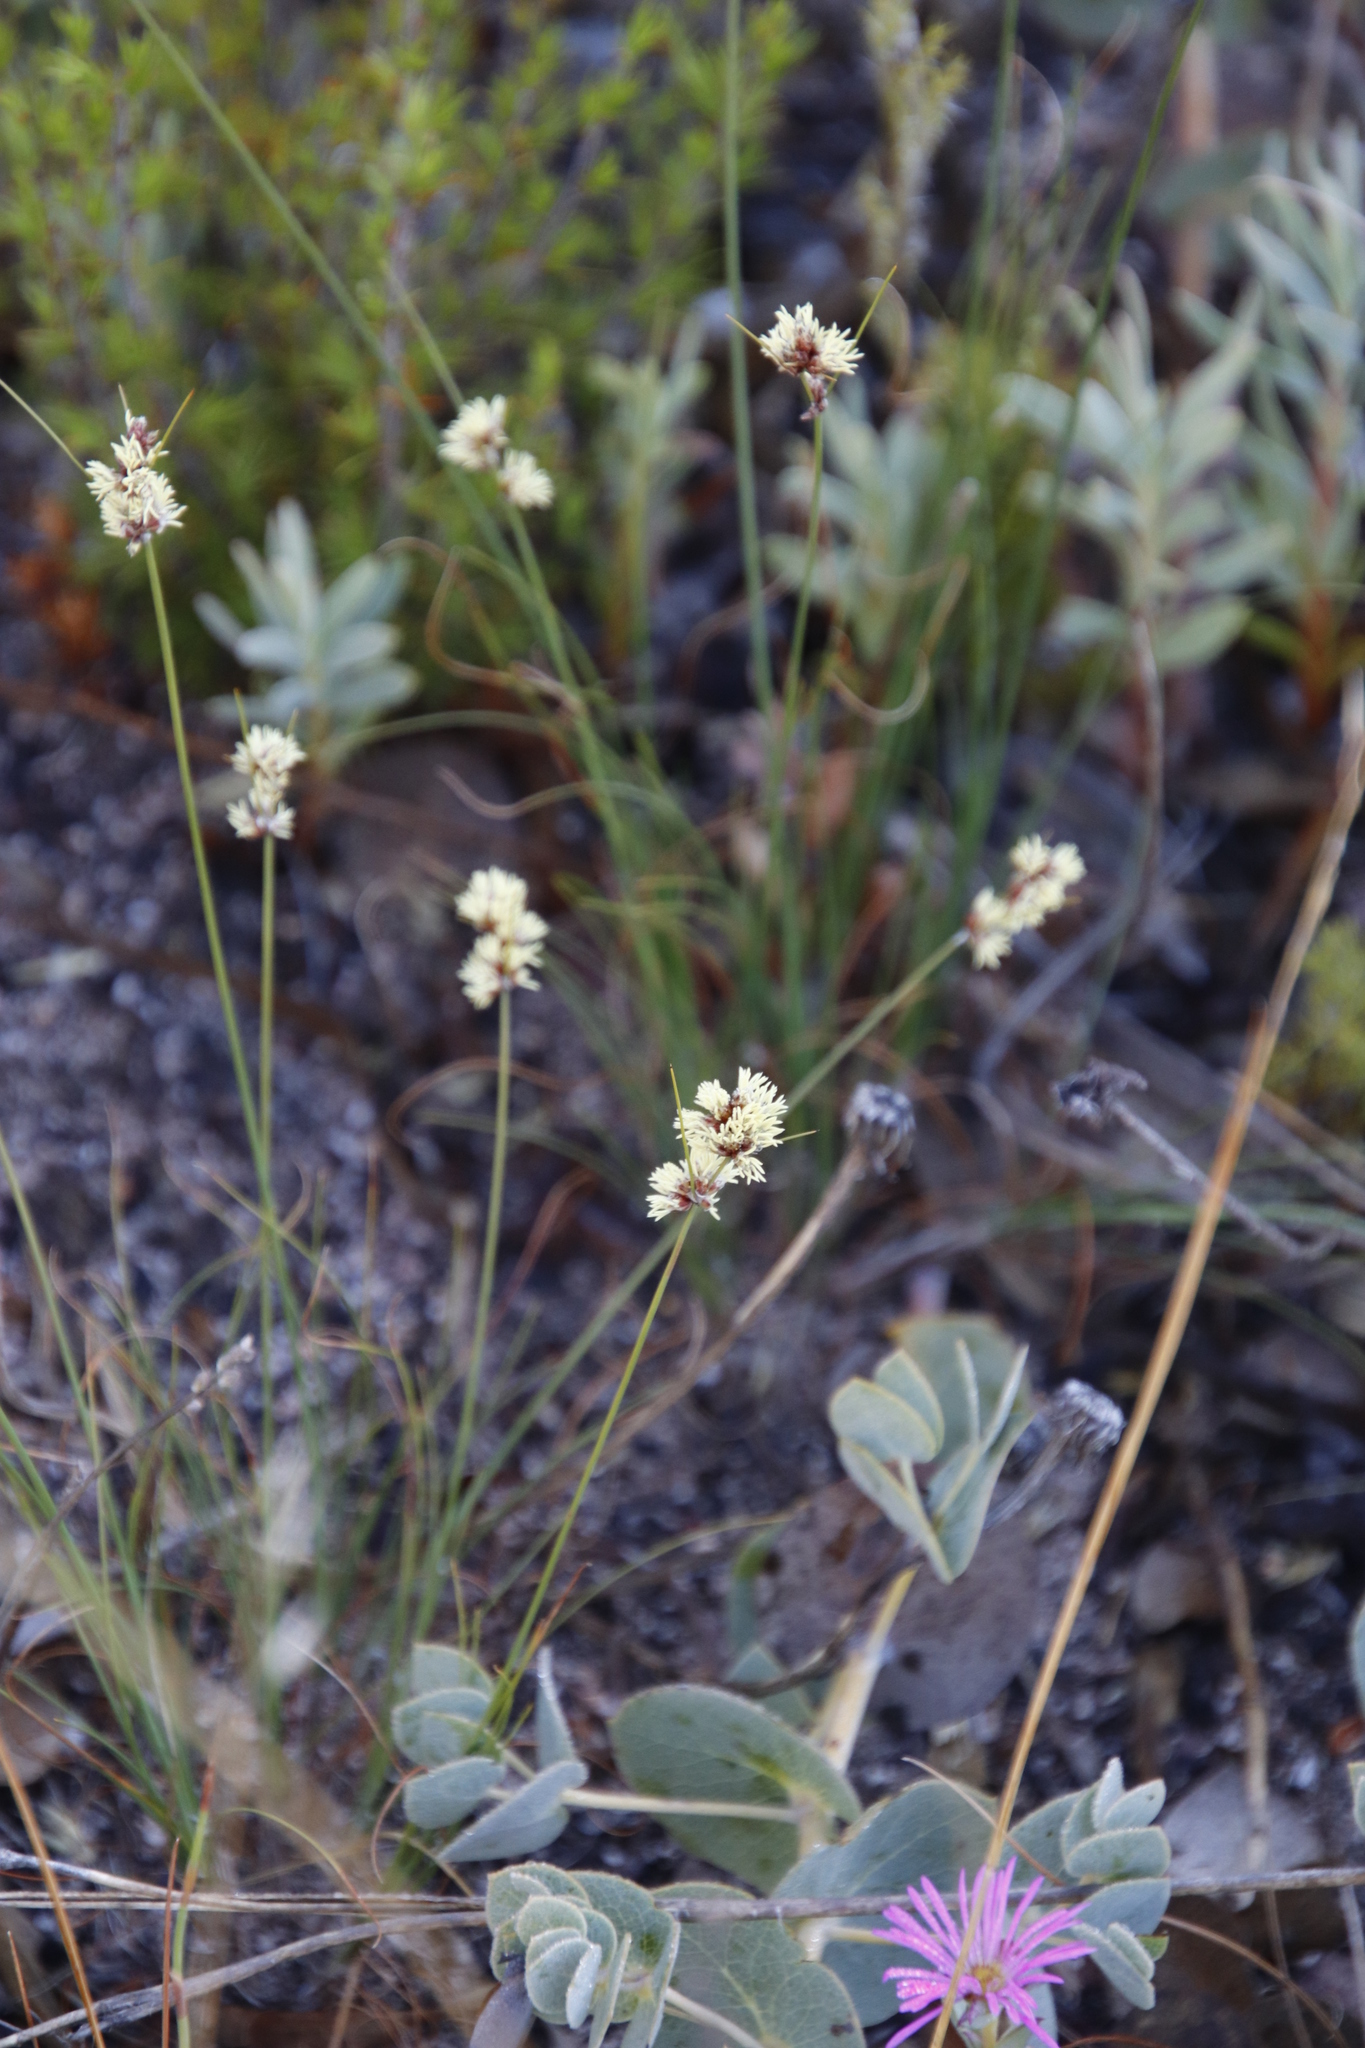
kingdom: Plantae
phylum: Tracheophyta
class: Liliopsida
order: Poales
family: Cyperaceae
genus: Ficinia
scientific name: Ficinia bulbosa
